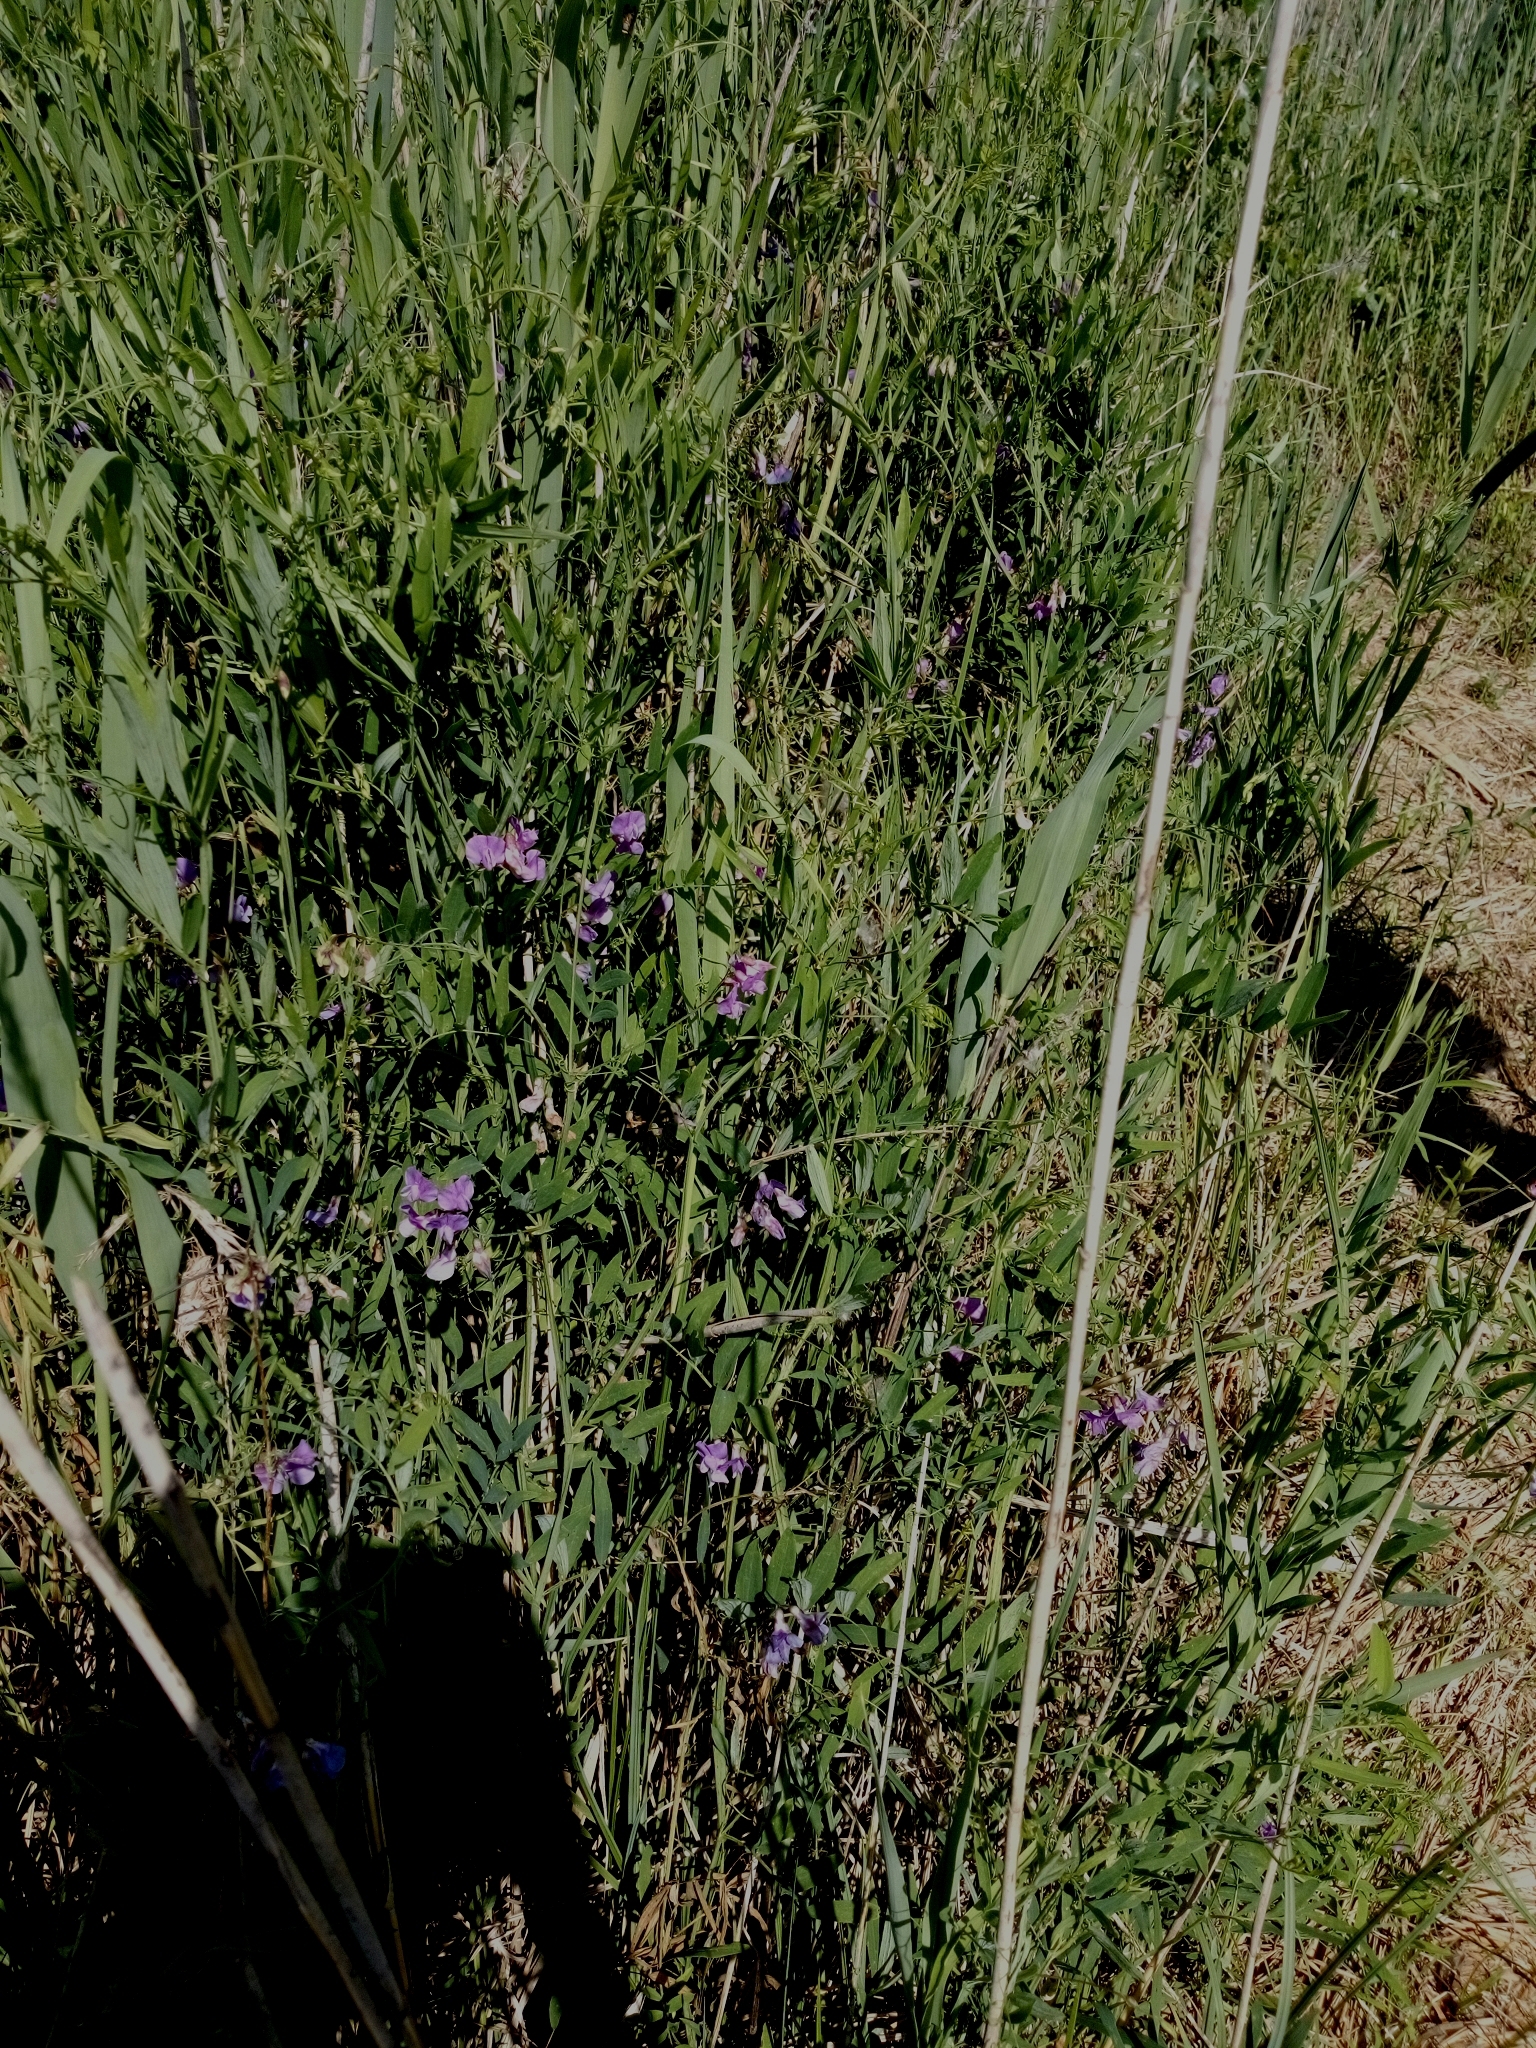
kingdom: Plantae
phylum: Tracheophyta
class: Magnoliopsida
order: Fabales
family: Fabaceae
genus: Lathyrus
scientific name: Lathyrus palustris
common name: Marsh pea
